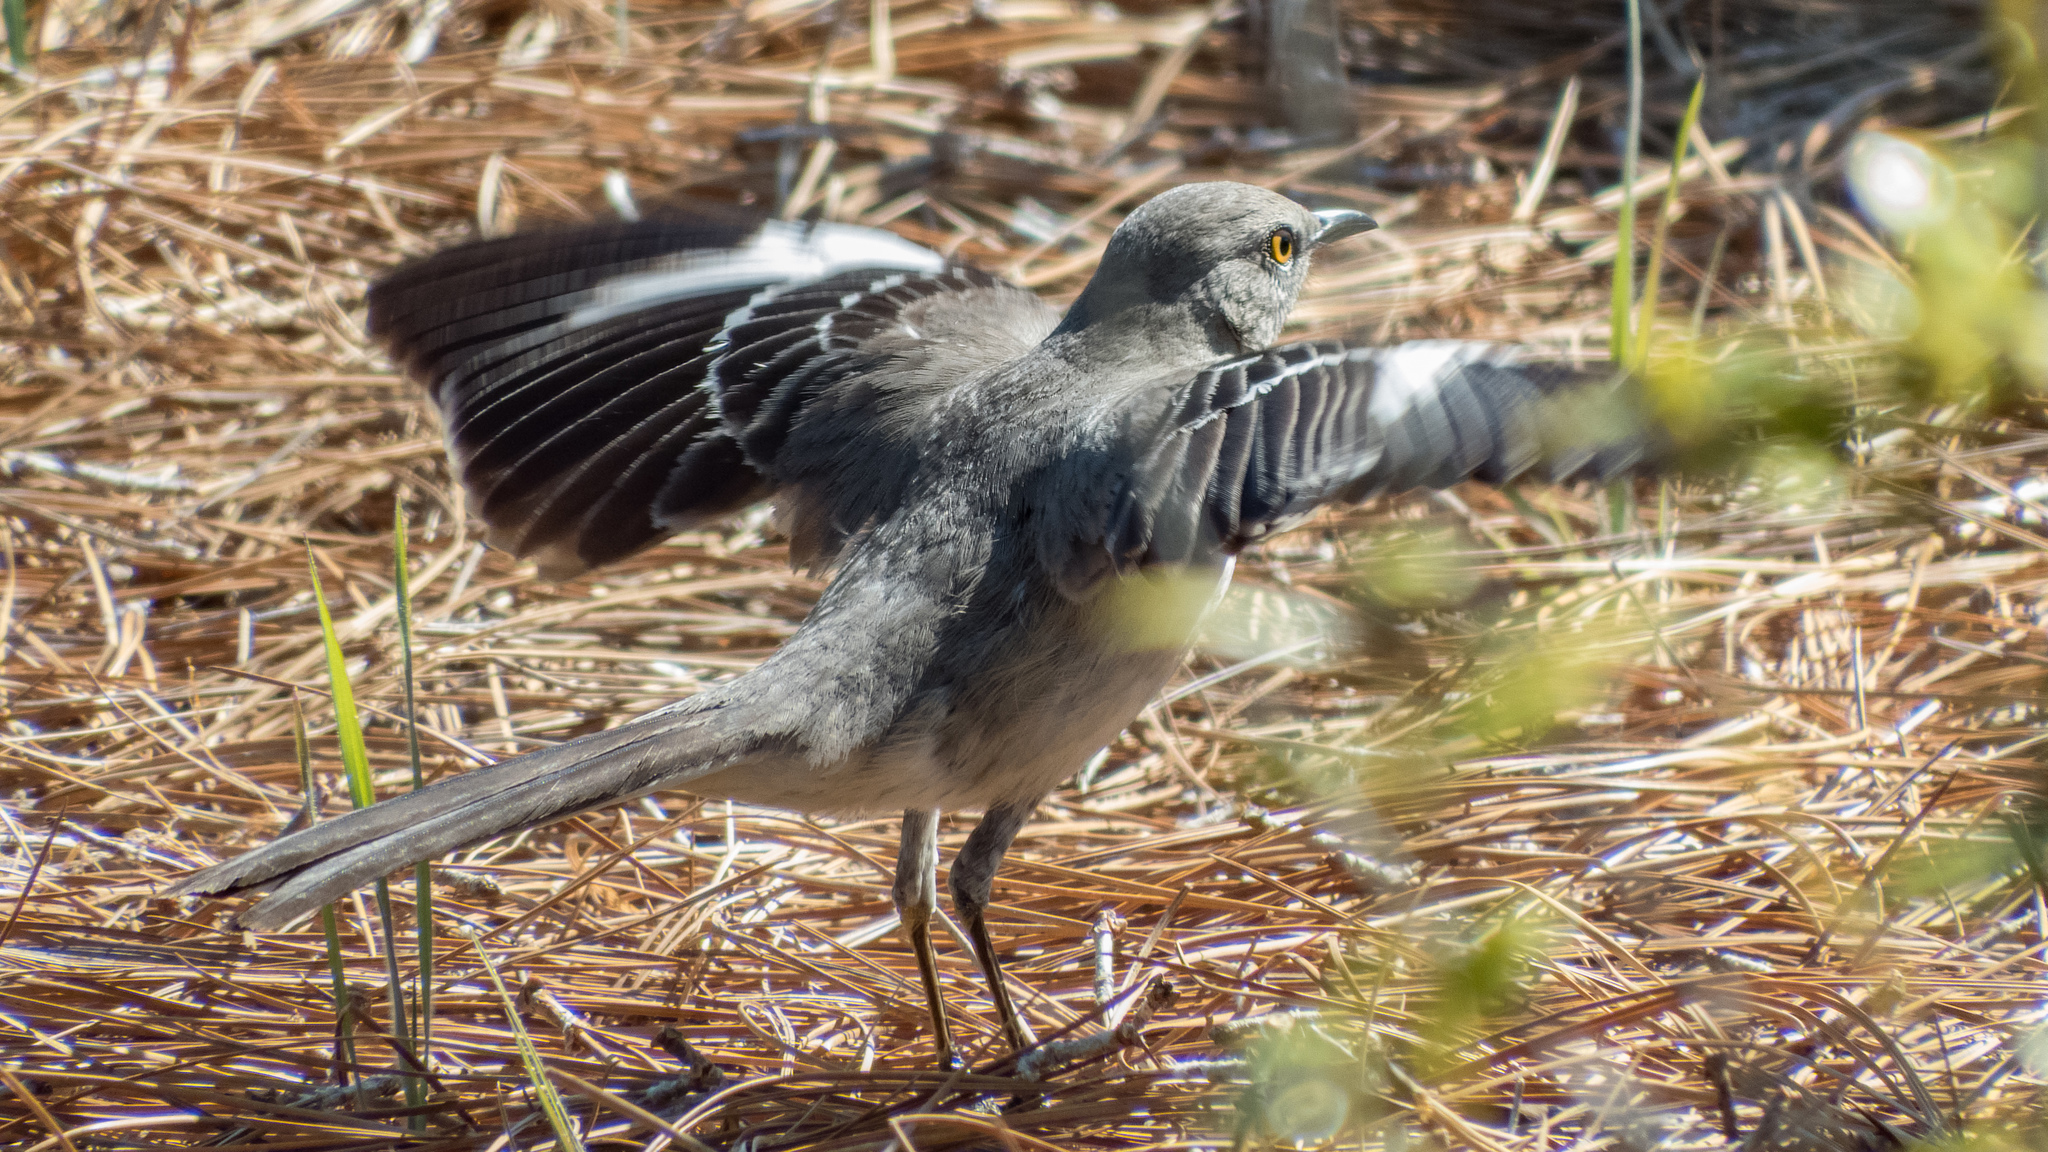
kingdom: Animalia
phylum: Chordata
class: Aves
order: Passeriformes
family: Mimidae
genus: Mimus
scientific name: Mimus polyglottos
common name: Northern mockingbird
